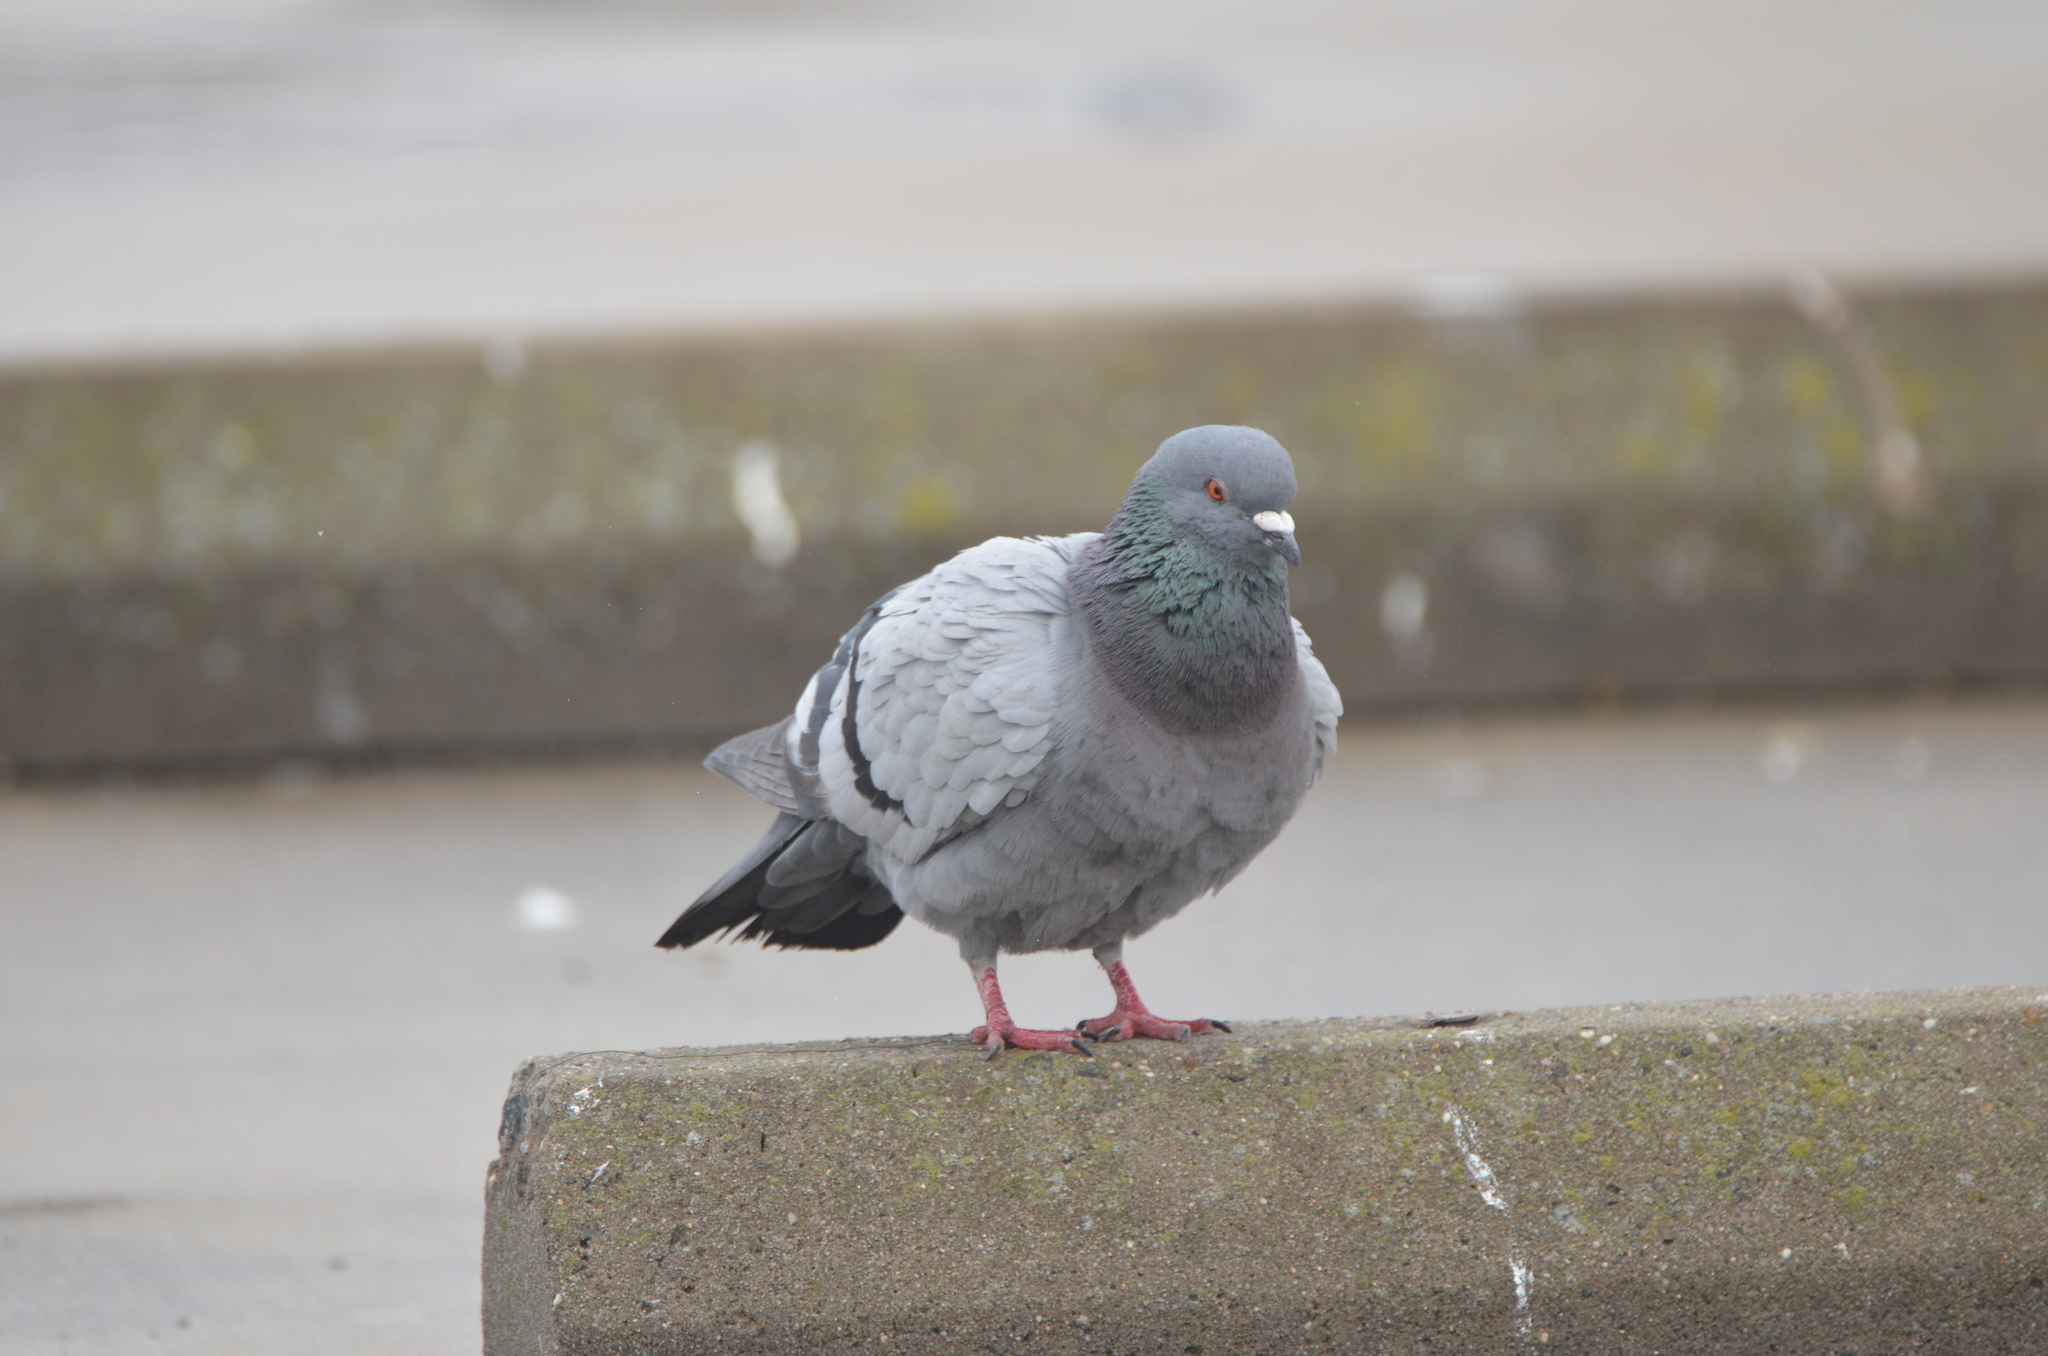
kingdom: Animalia
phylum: Chordata
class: Aves
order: Columbiformes
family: Columbidae
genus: Columba
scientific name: Columba livia
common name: Rock pigeon
